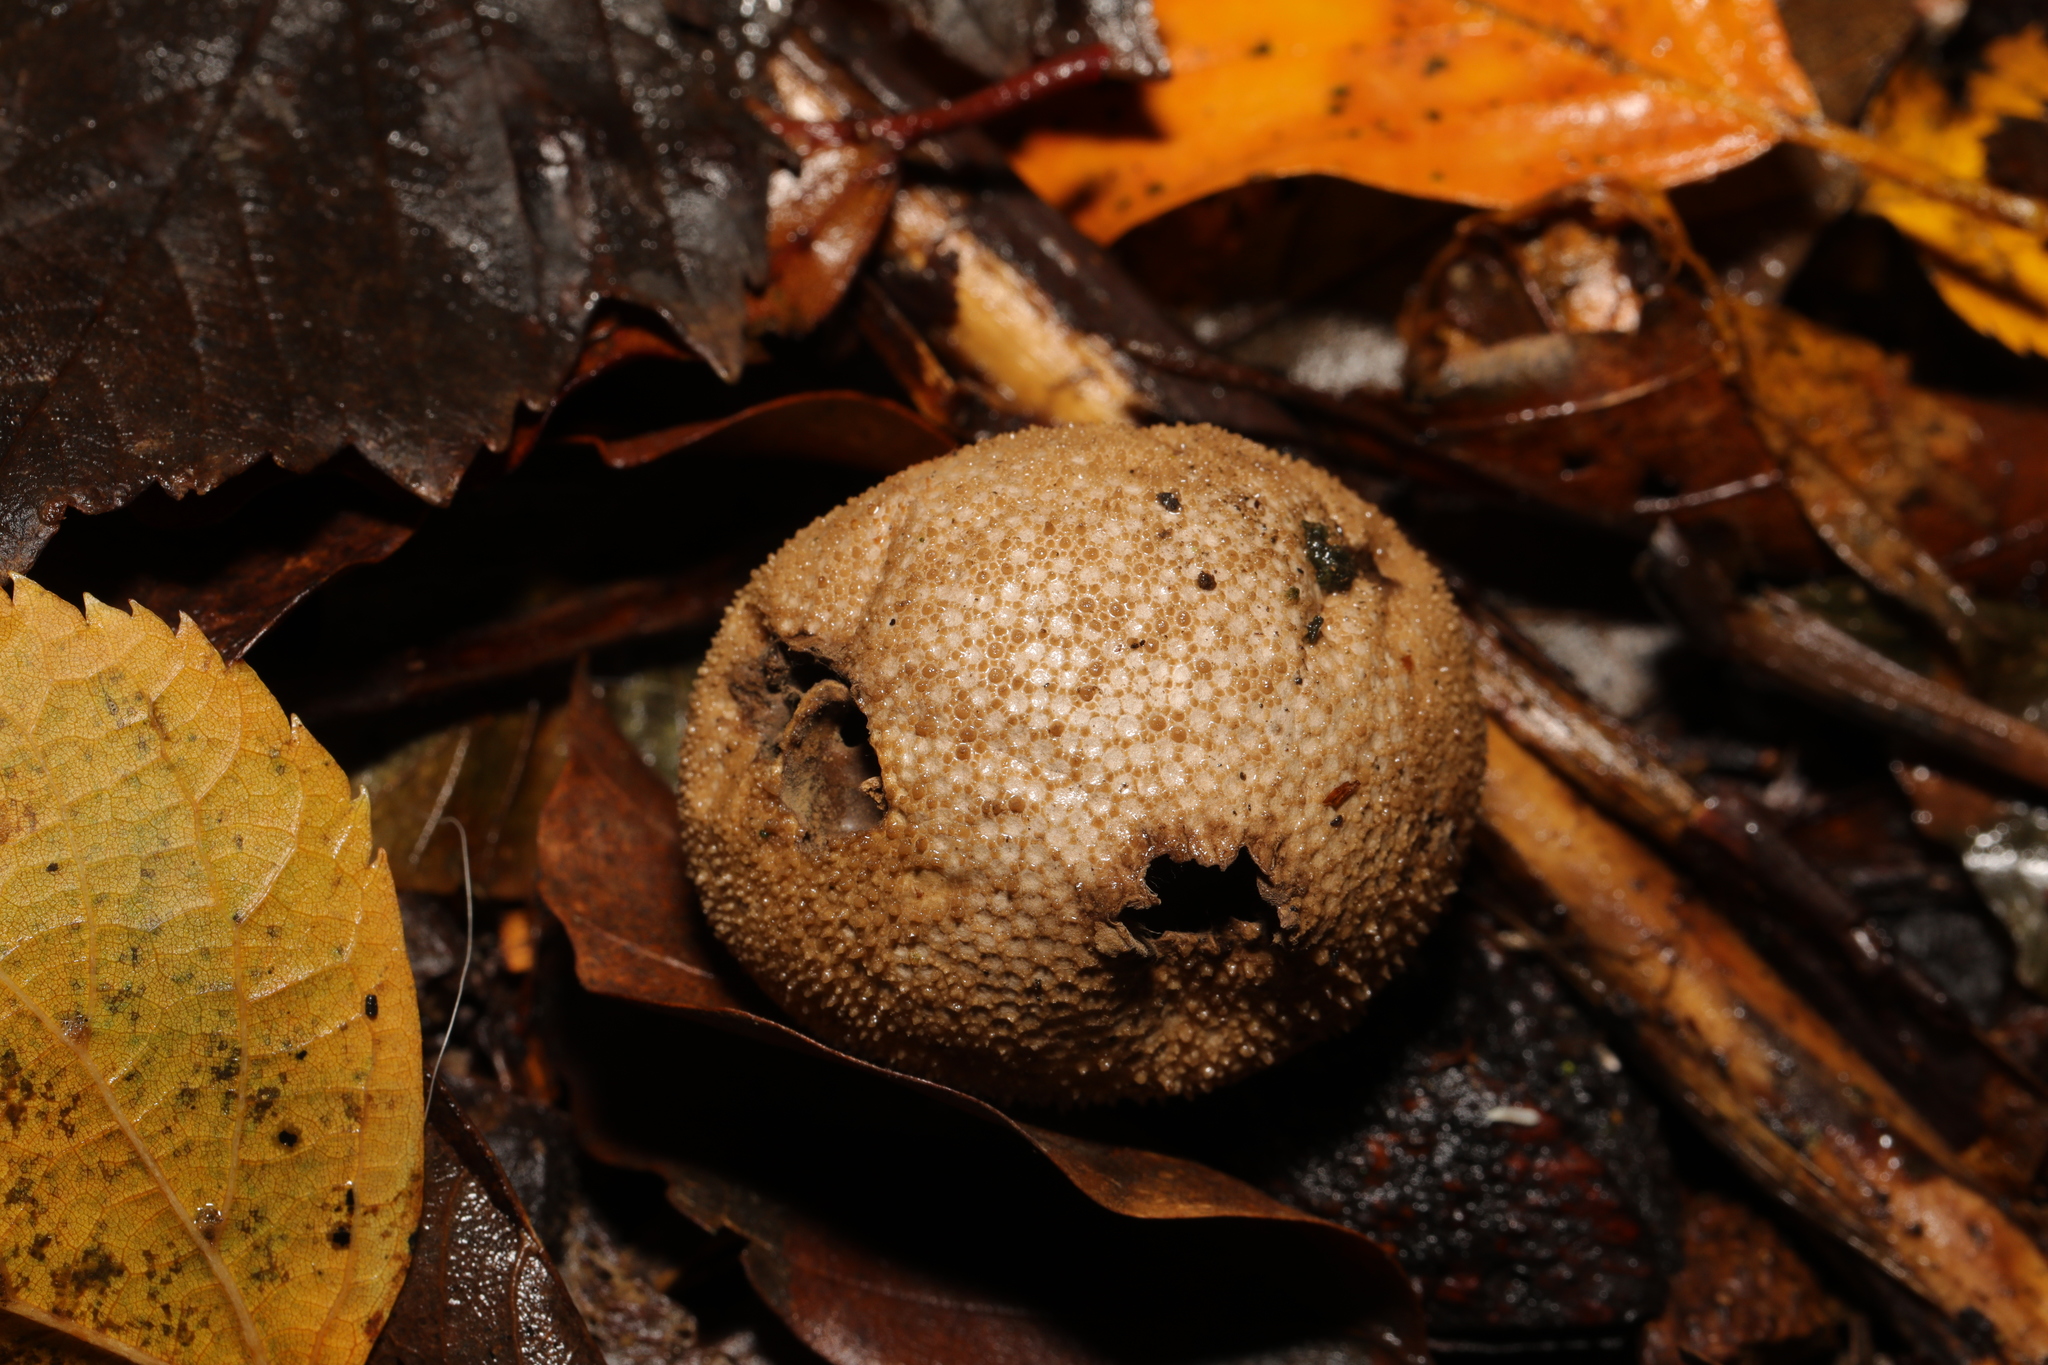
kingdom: Fungi
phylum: Basidiomycota
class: Agaricomycetes
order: Agaricales
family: Lycoperdaceae
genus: Lycoperdon
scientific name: Lycoperdon perlatum
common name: Common puffball
